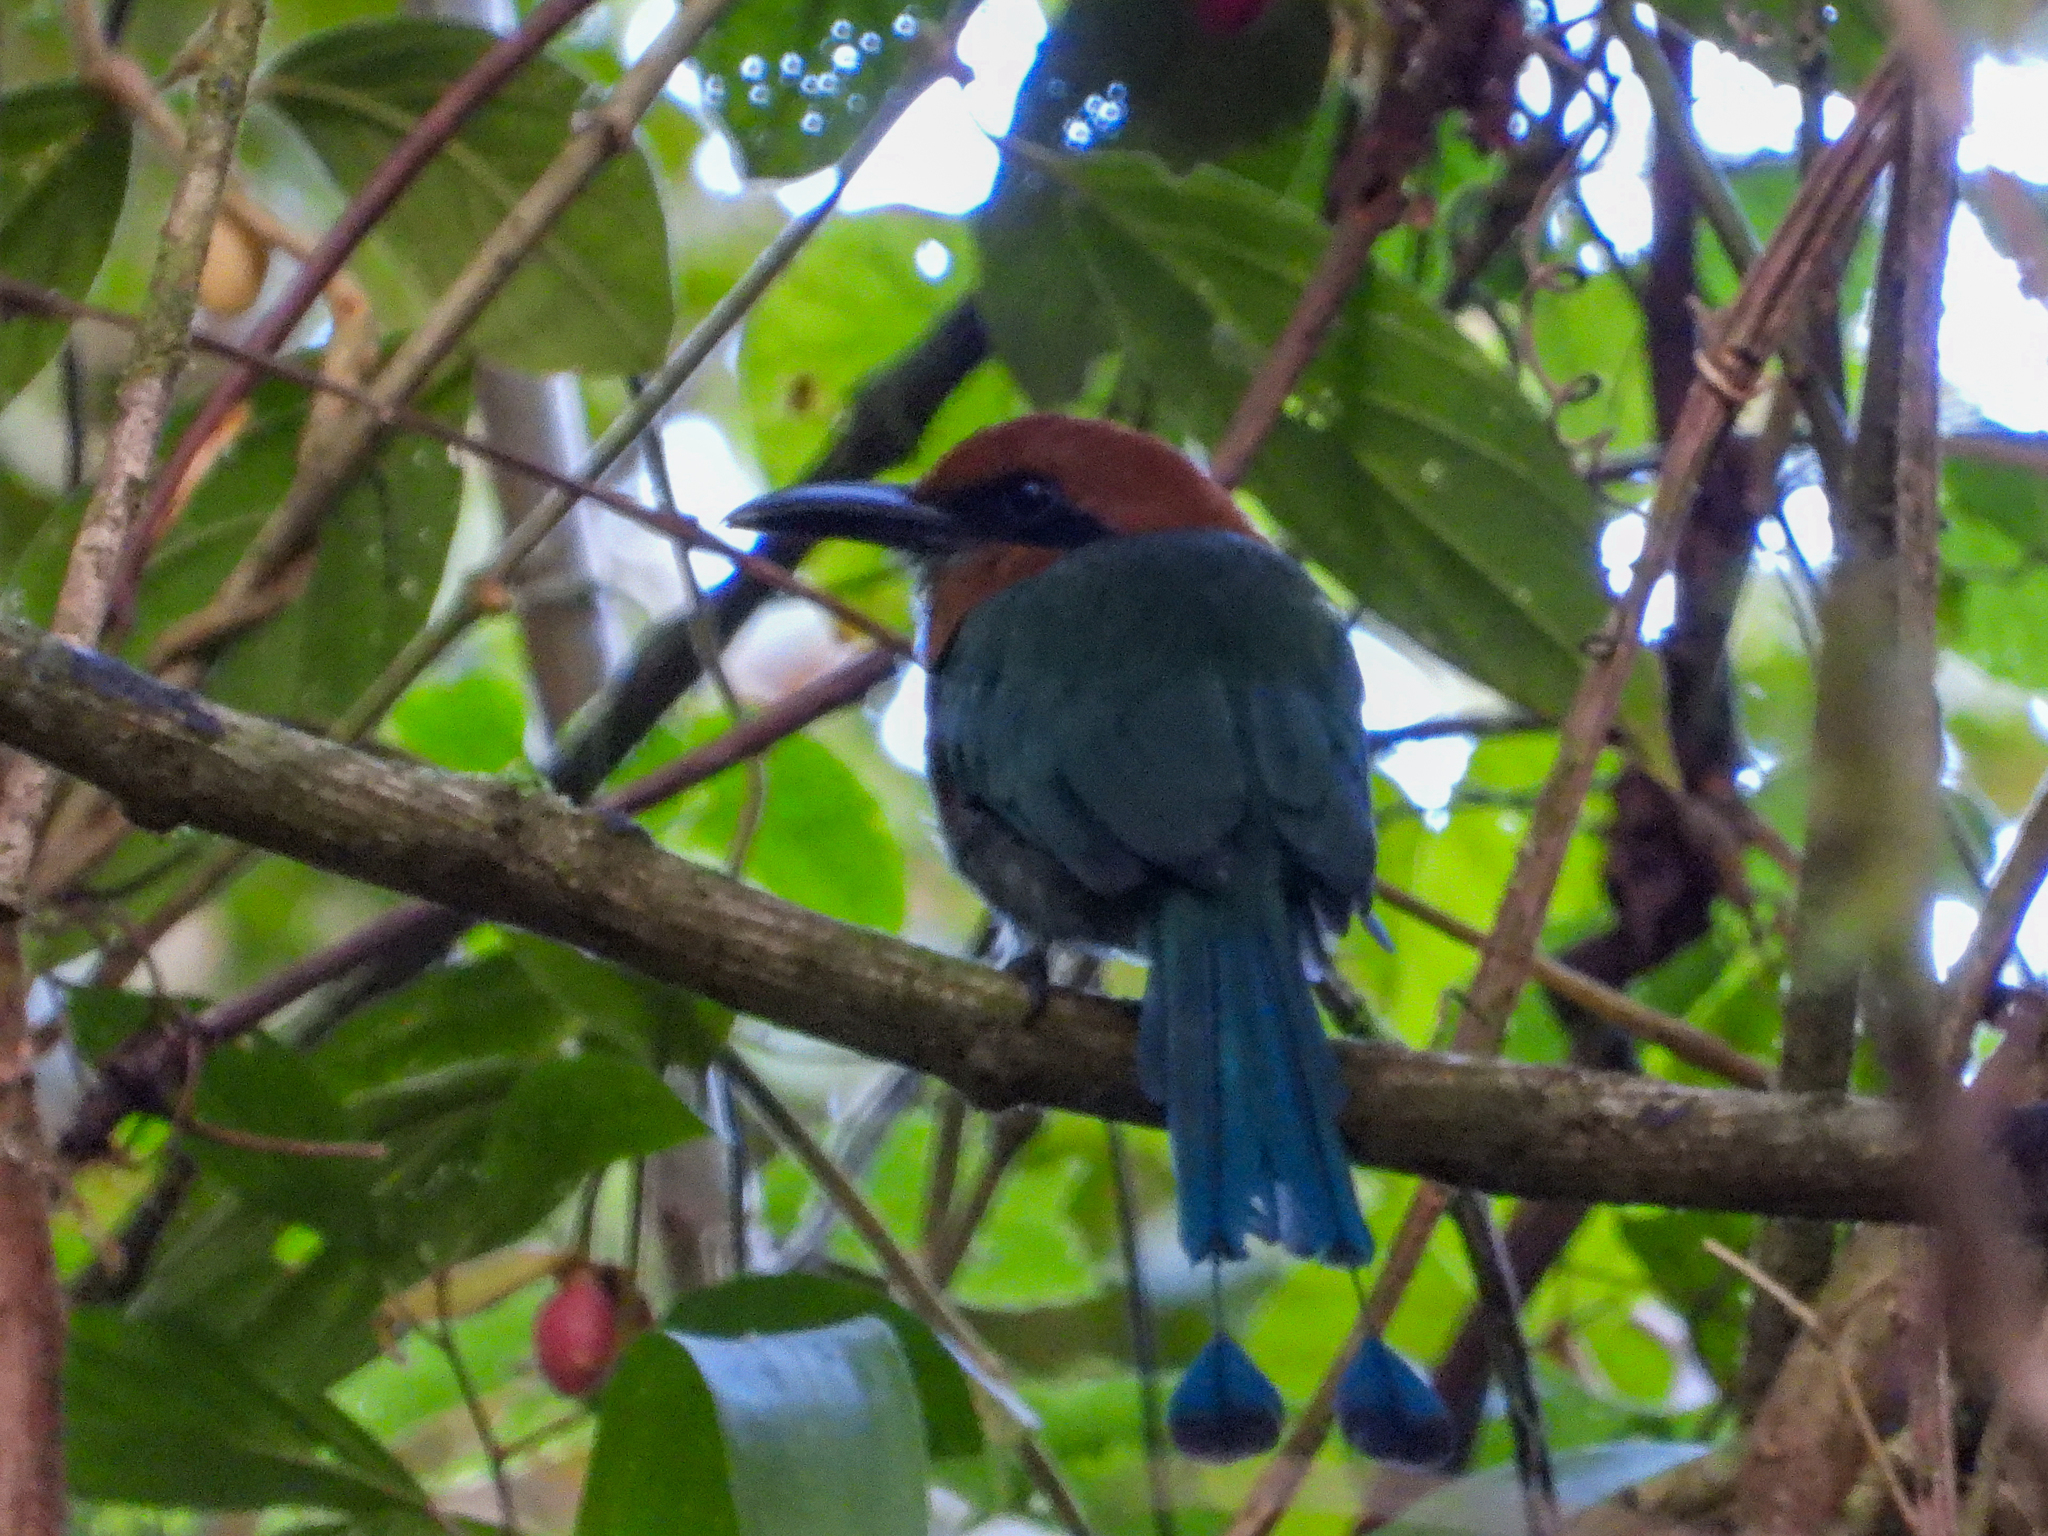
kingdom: Animalia
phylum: Chordata
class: Aves
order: Coraciiformes
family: Momotidae
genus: Electron
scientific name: Electron platyrhynchum
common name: Broad-billed motmot
